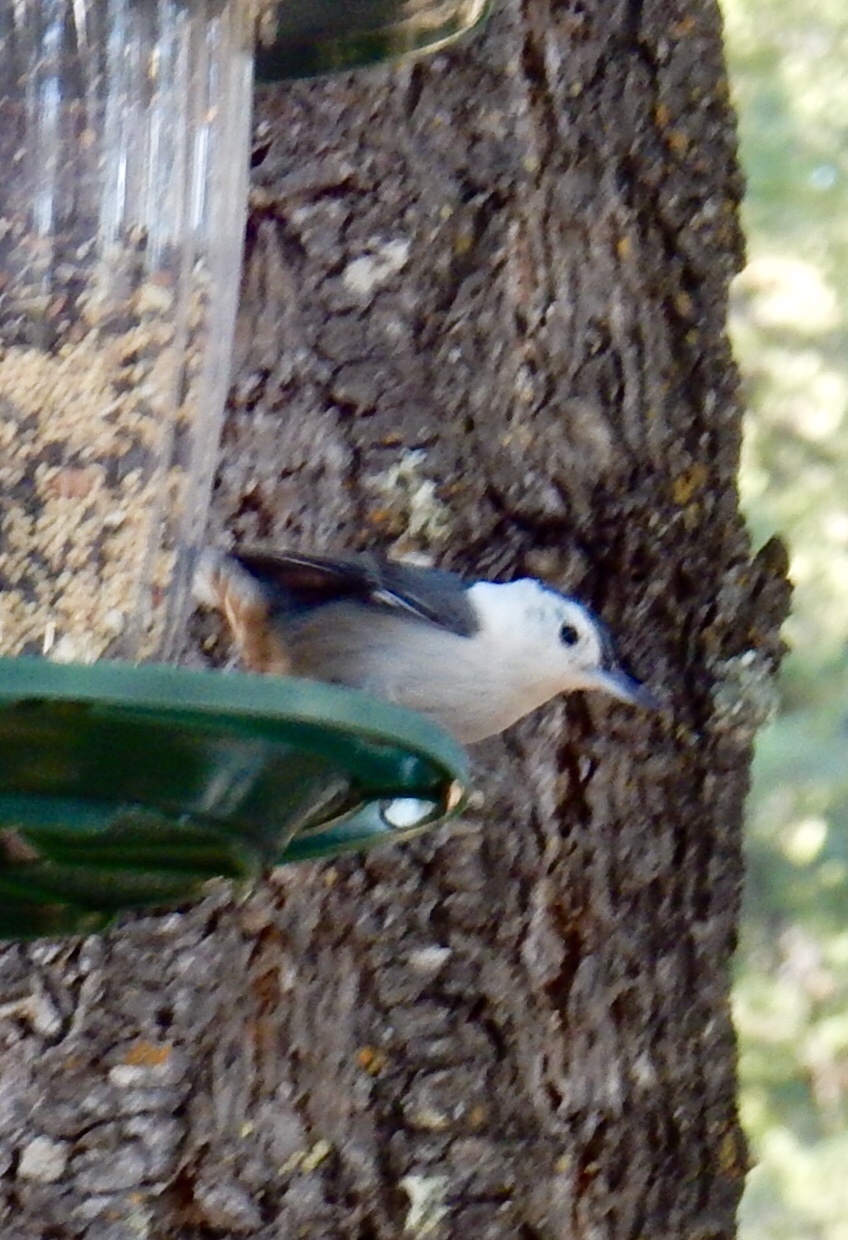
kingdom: Animalia
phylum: Chordata
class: Aves
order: Passeriformes
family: Sittidae
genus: Sitta
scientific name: Sitta carolinensis
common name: White-breasted nuthatch
